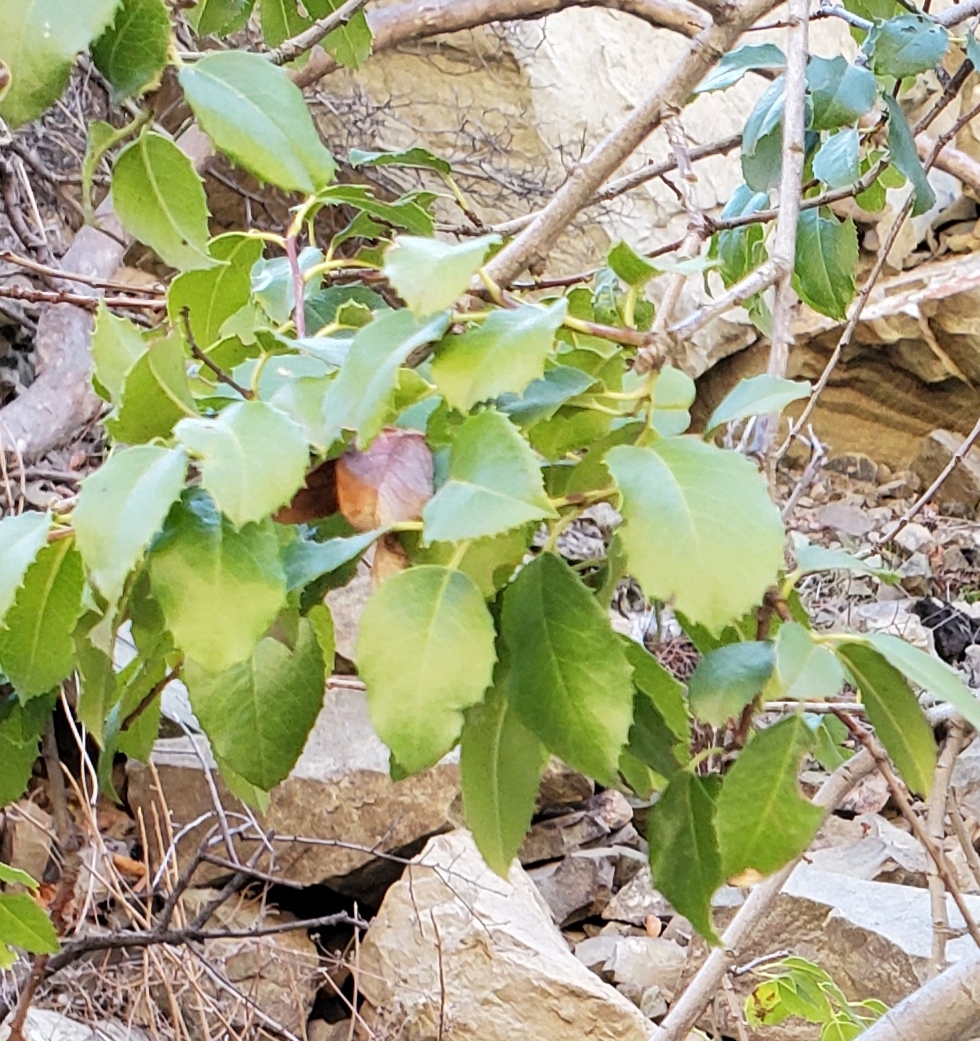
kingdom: Plantae
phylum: Tracheophyta
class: Magnoliopsida
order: Rosales
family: Rosaceae
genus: Prunus
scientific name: Prunus ilicifolia
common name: Hollyleaf cherry
